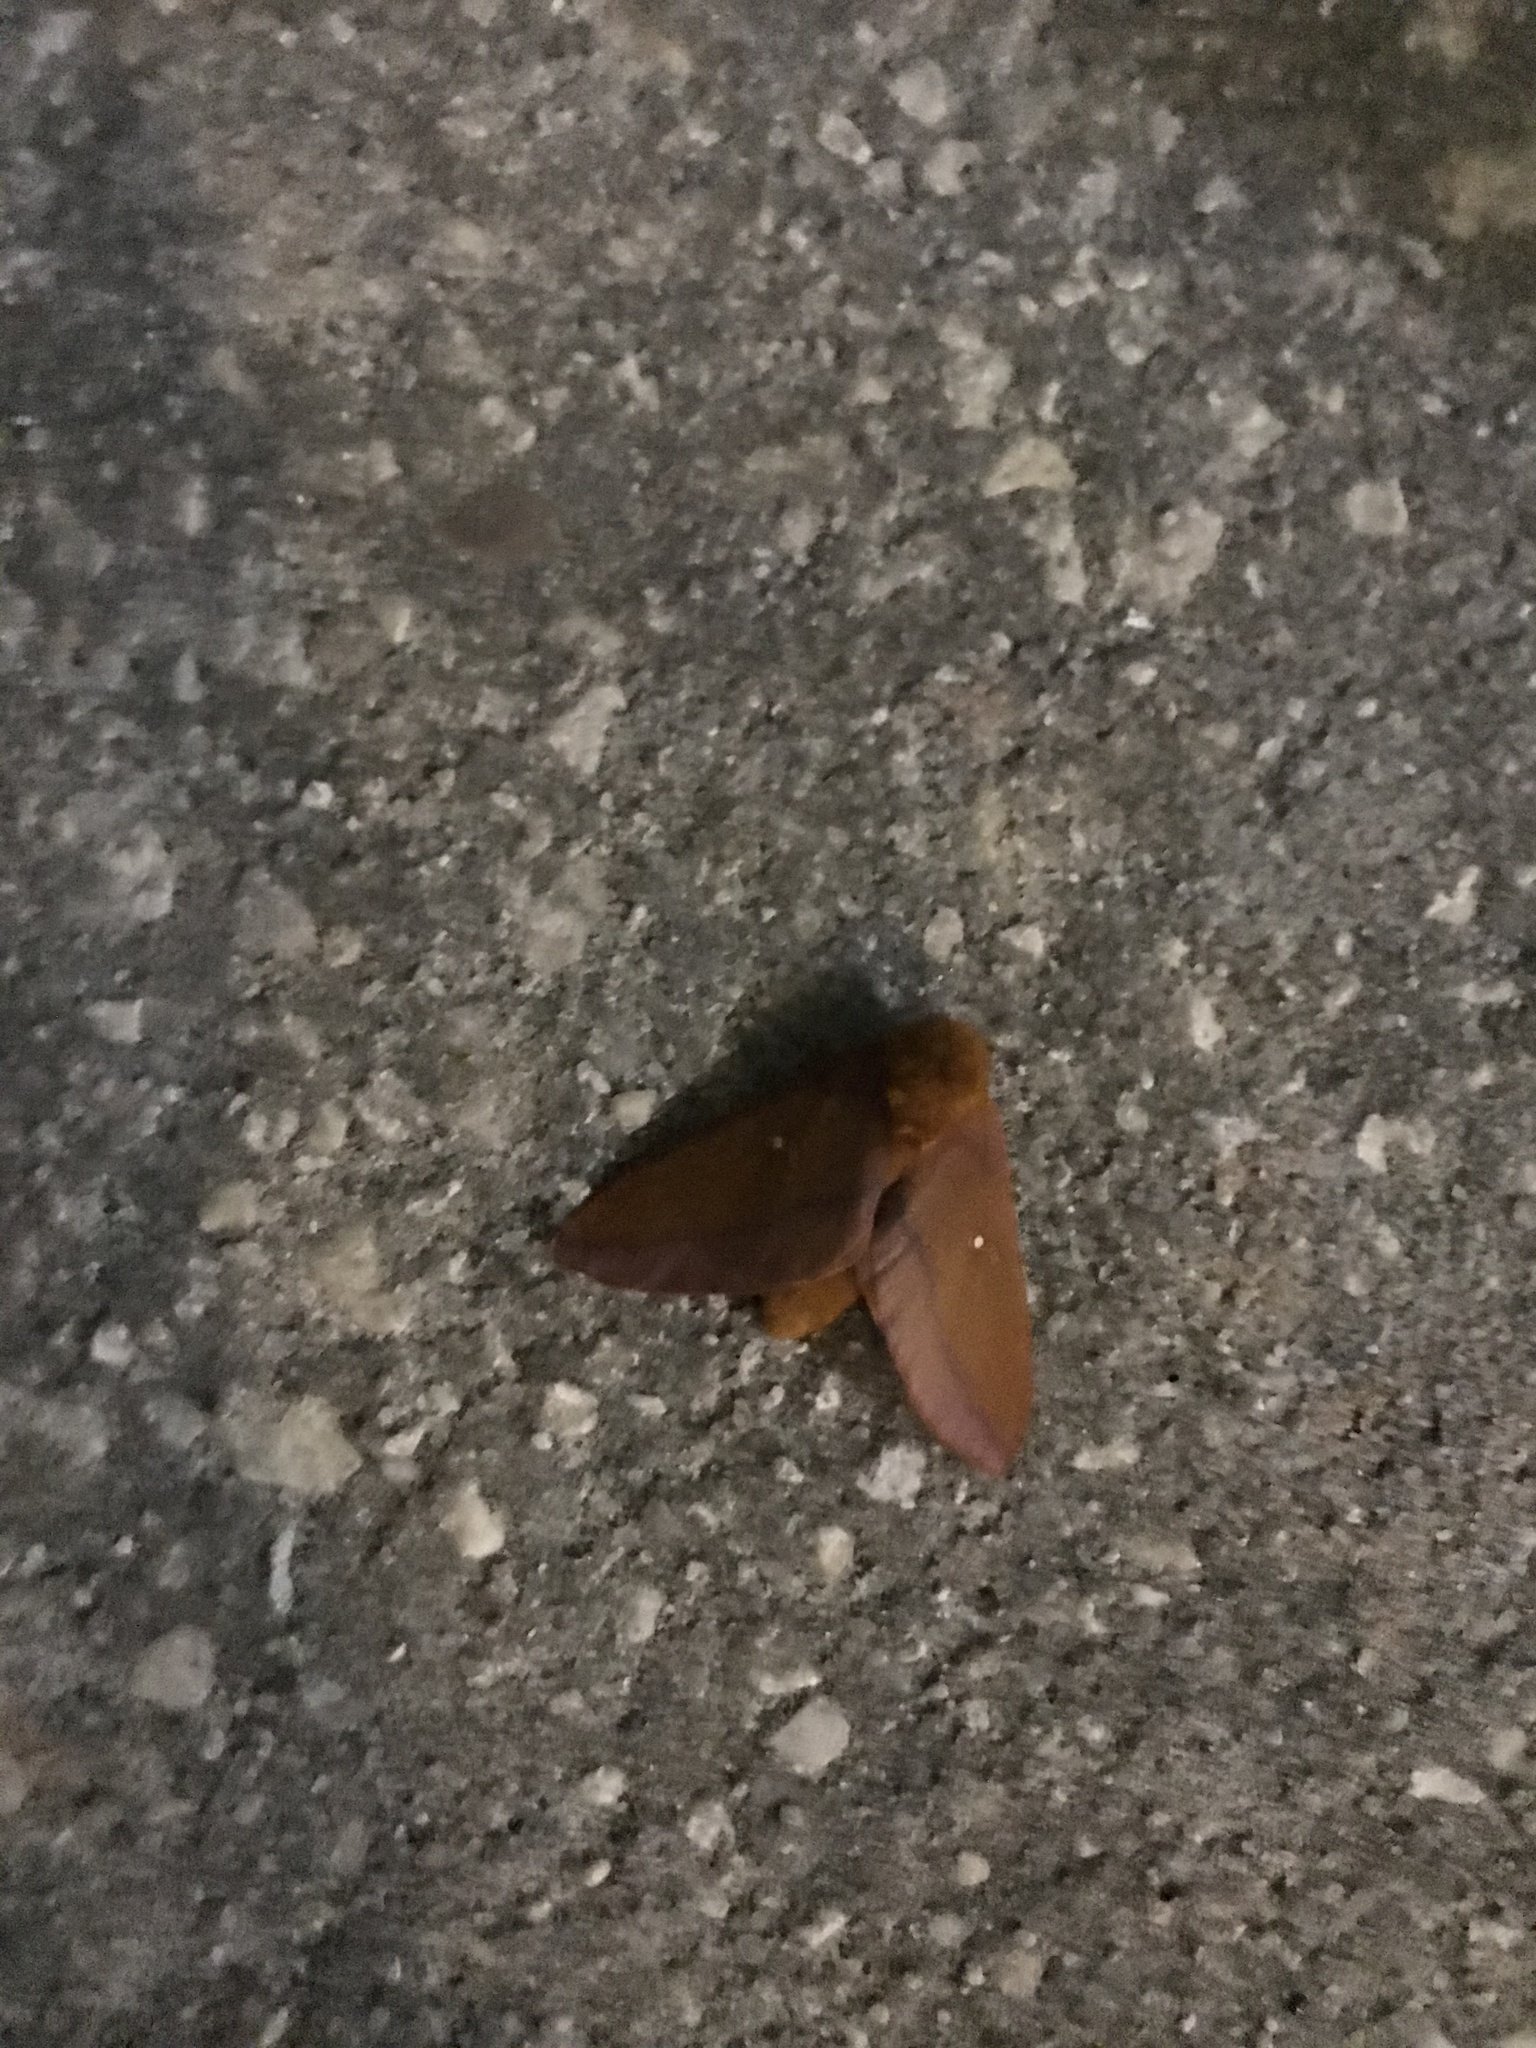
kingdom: Animalia
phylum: Arthropoda
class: Insecta
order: Lepidoptera
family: Saturniidae
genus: Anisota
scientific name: Anisota virginiensis
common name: Pink striped oakworm moth
